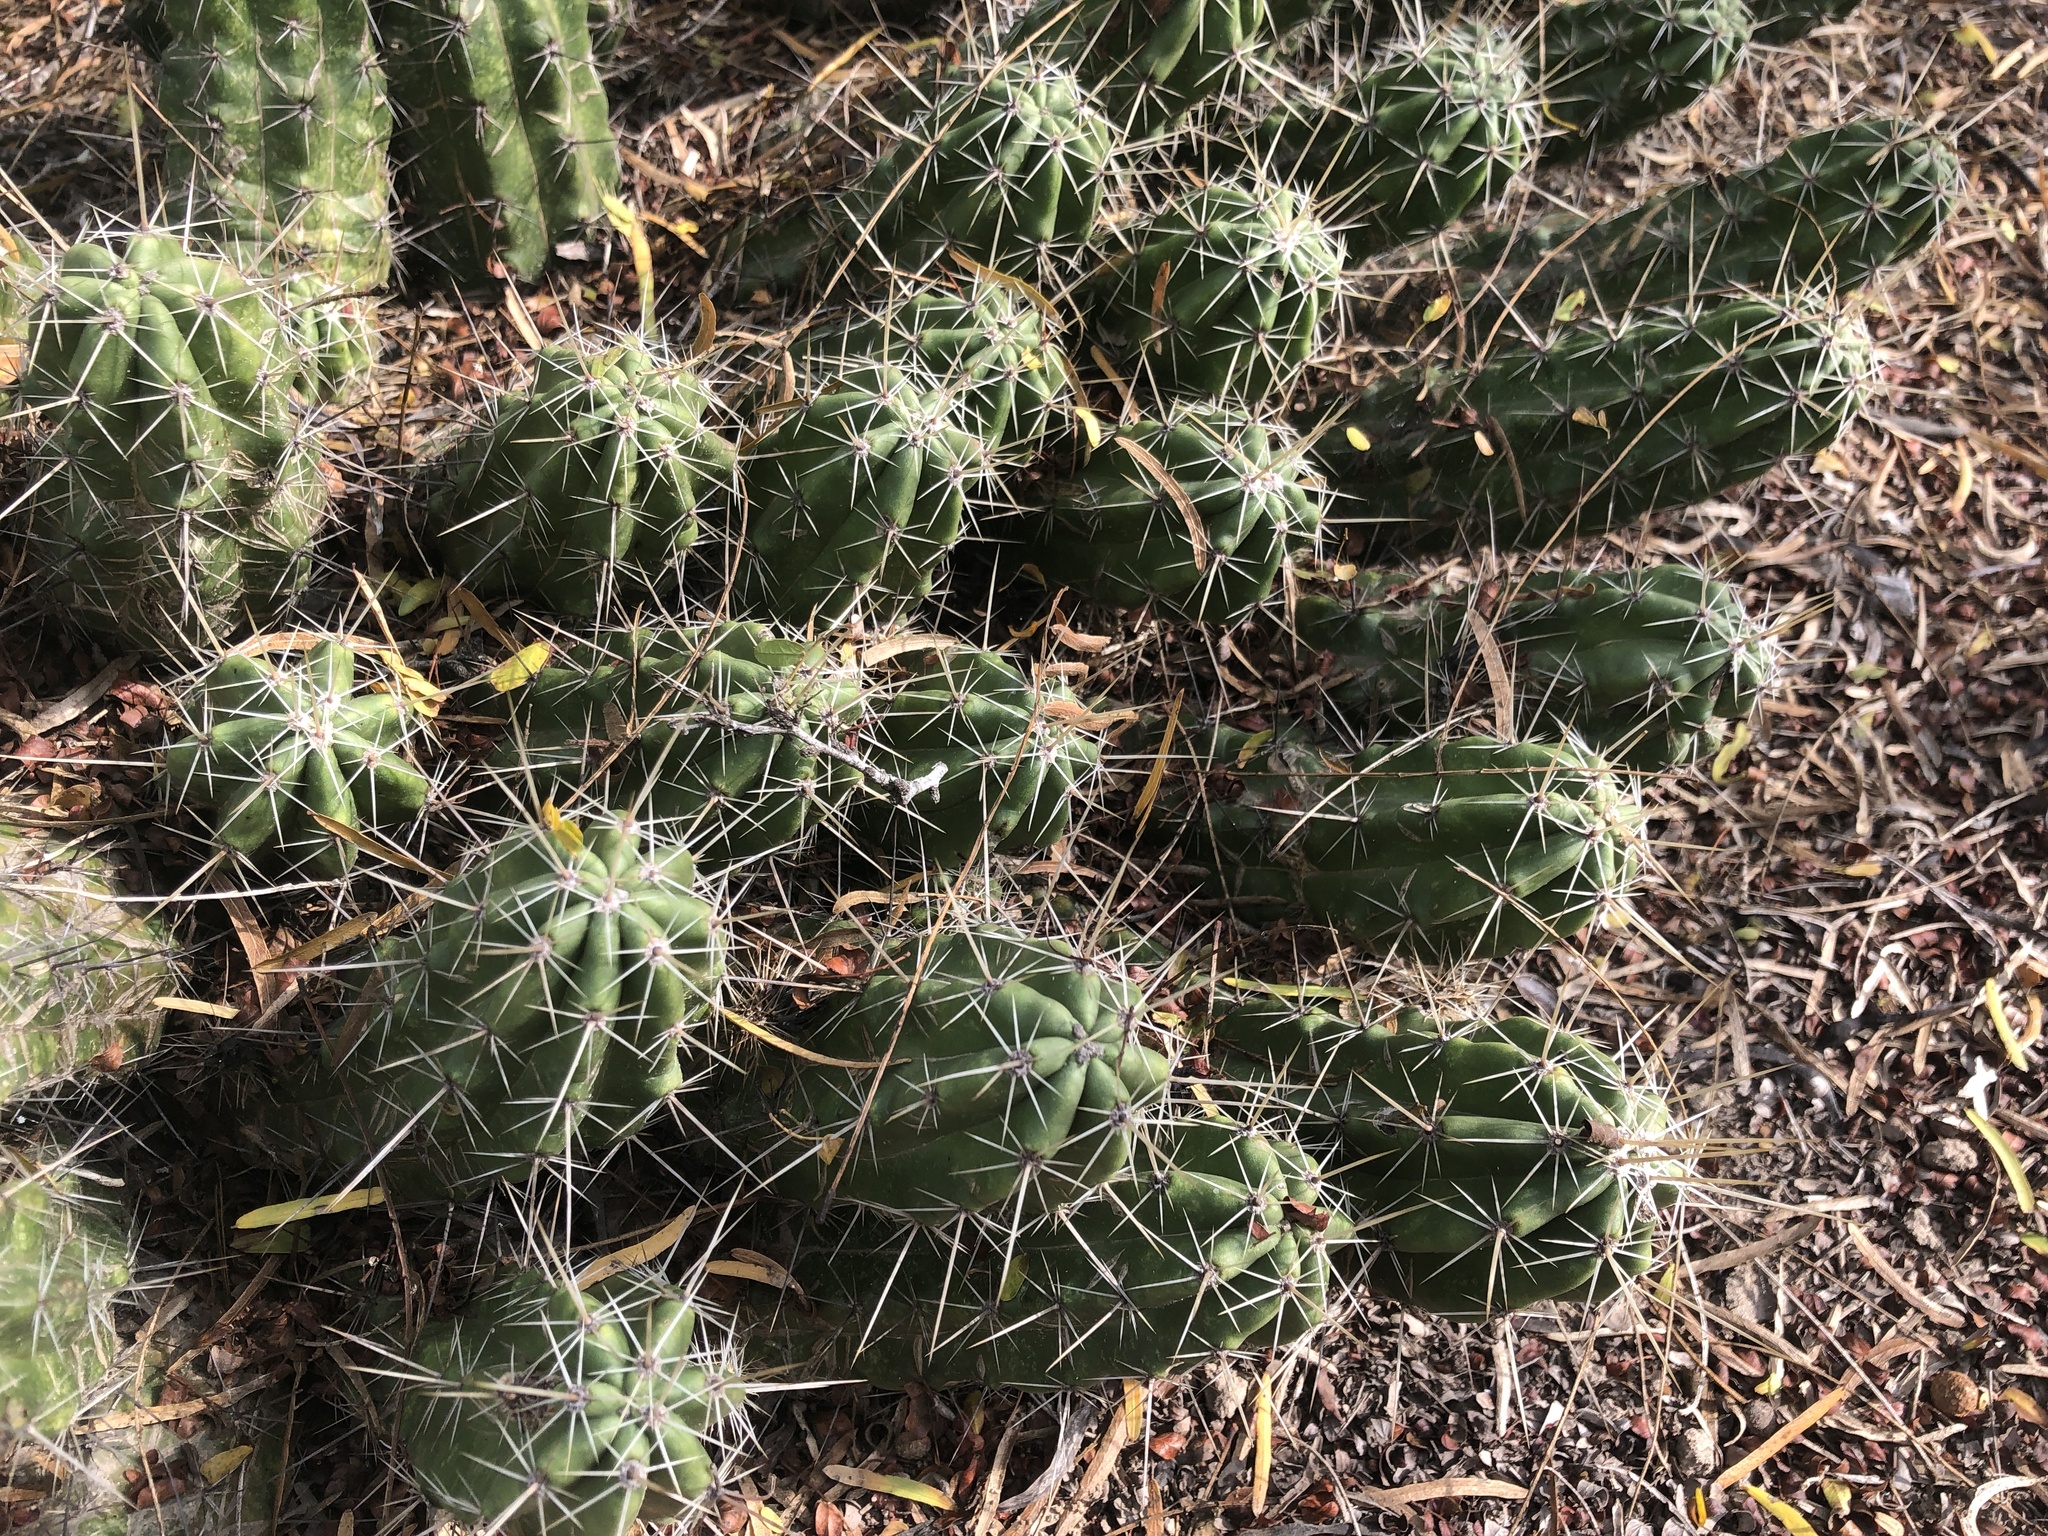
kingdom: Plantae
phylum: Tracheophyta
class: Magnoliopsida
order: Caryophyllales
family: Cactaceae
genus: Echinocereus
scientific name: Echinocereus enneacanthus
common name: Pitaya
